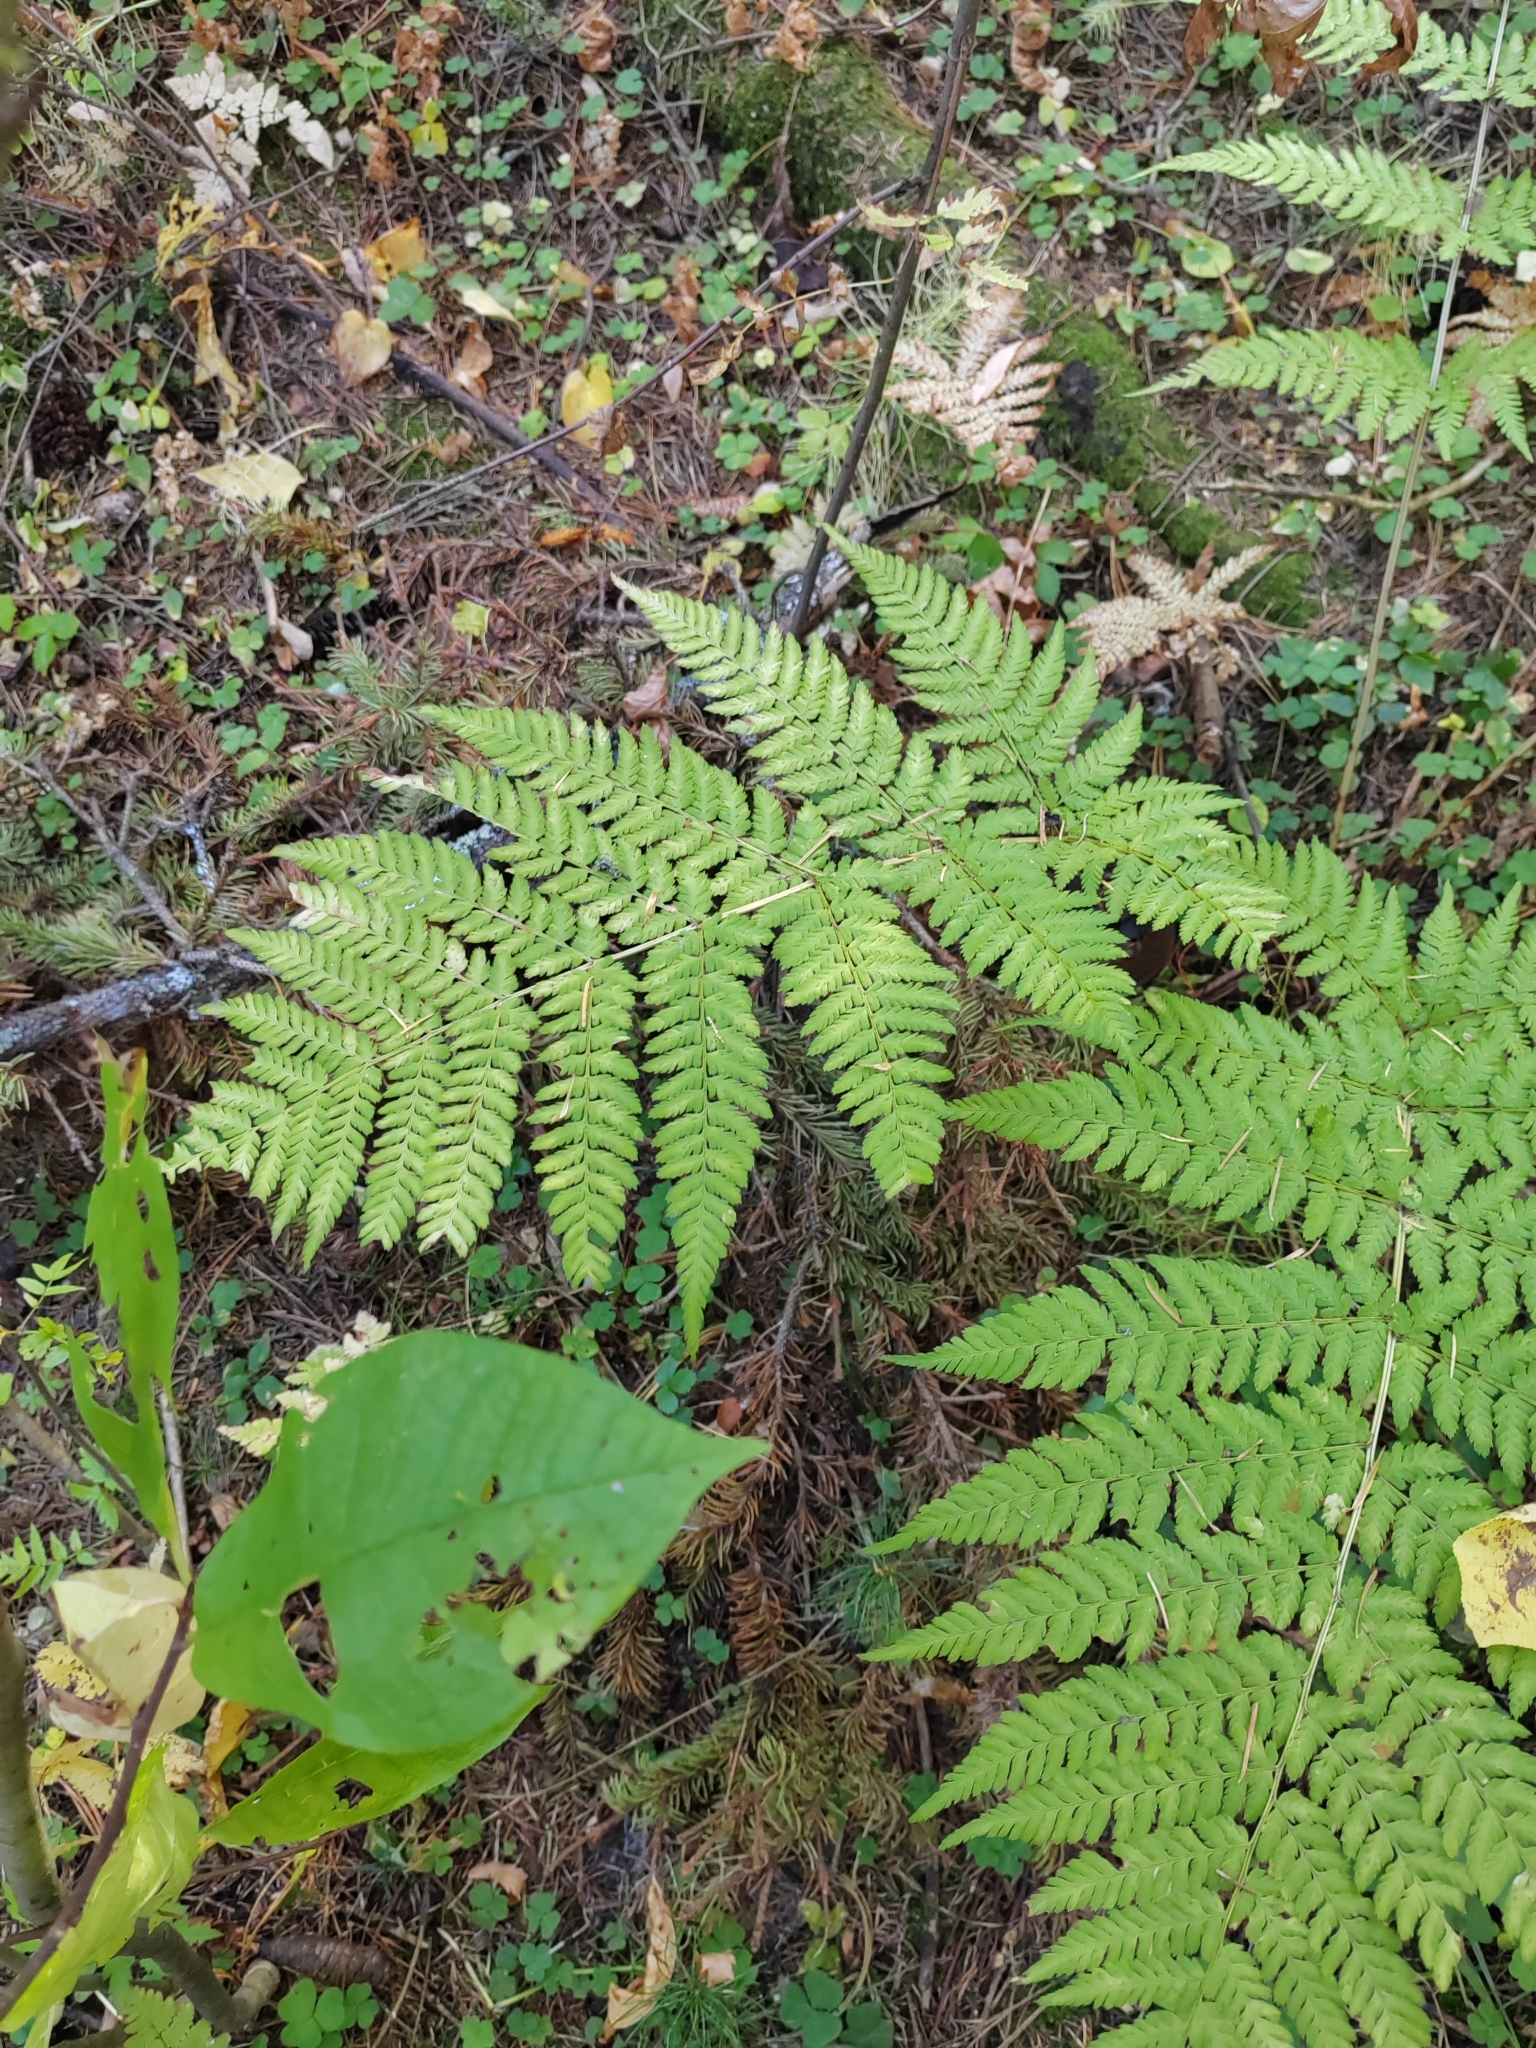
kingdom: Plantae
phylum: Tracheophyta
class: Polypodiopsida
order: Polypodiales
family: Dryopteridaceae
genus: Dryopteris
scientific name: Dryopteris expansa
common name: Northern buckler fern
